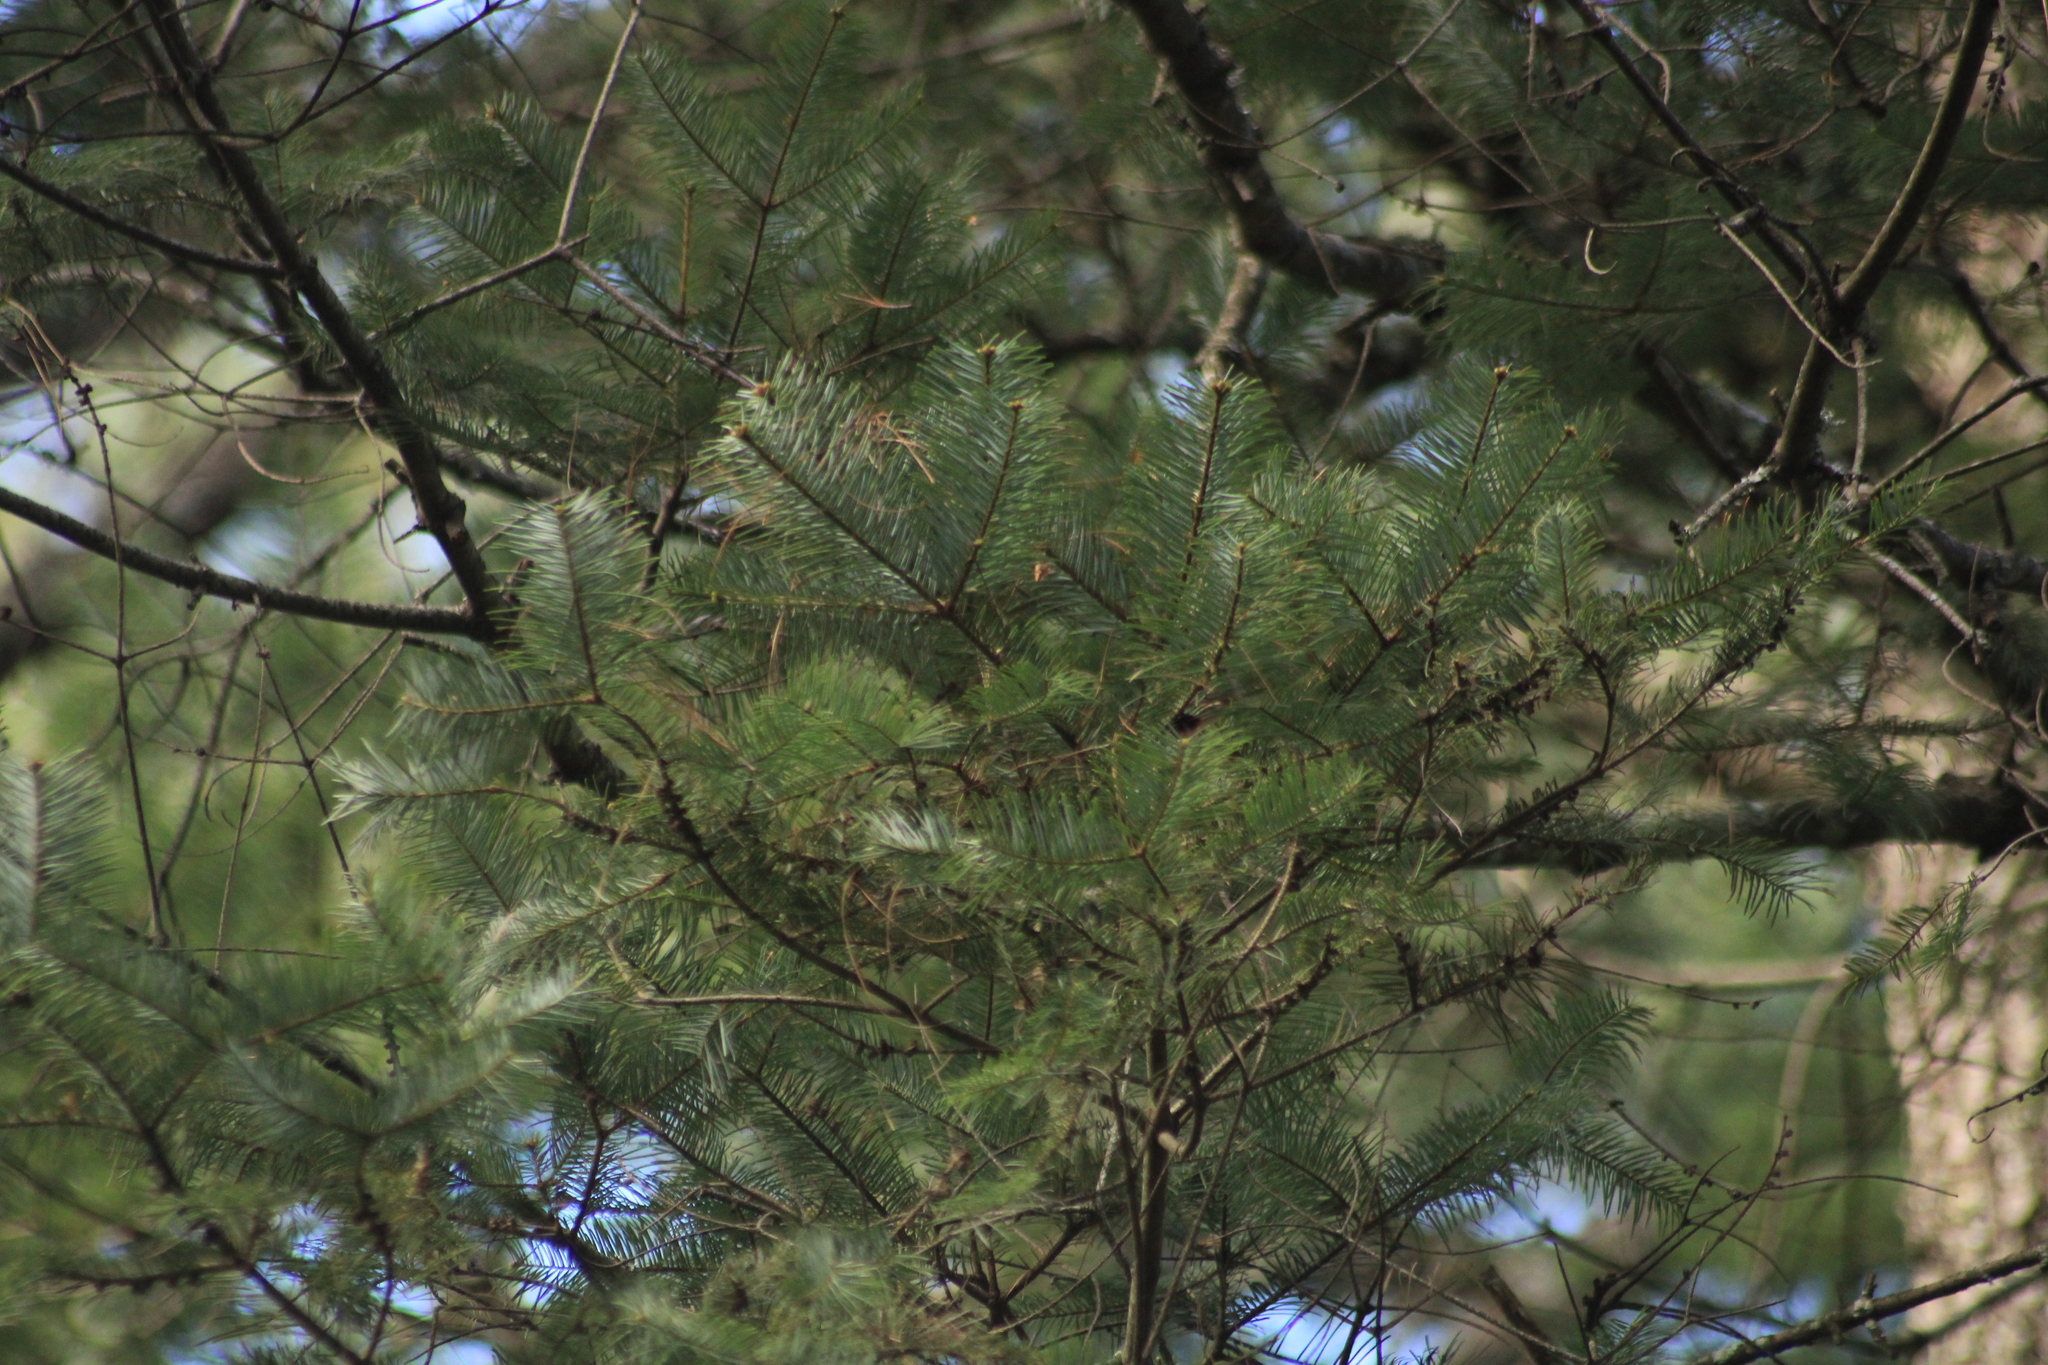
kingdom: Plantae
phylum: Tracheophyta
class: Pinopsida
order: Pinales
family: Pinaceae
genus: Abies
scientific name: Abies guatemalensis
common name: Guatemalan fir
